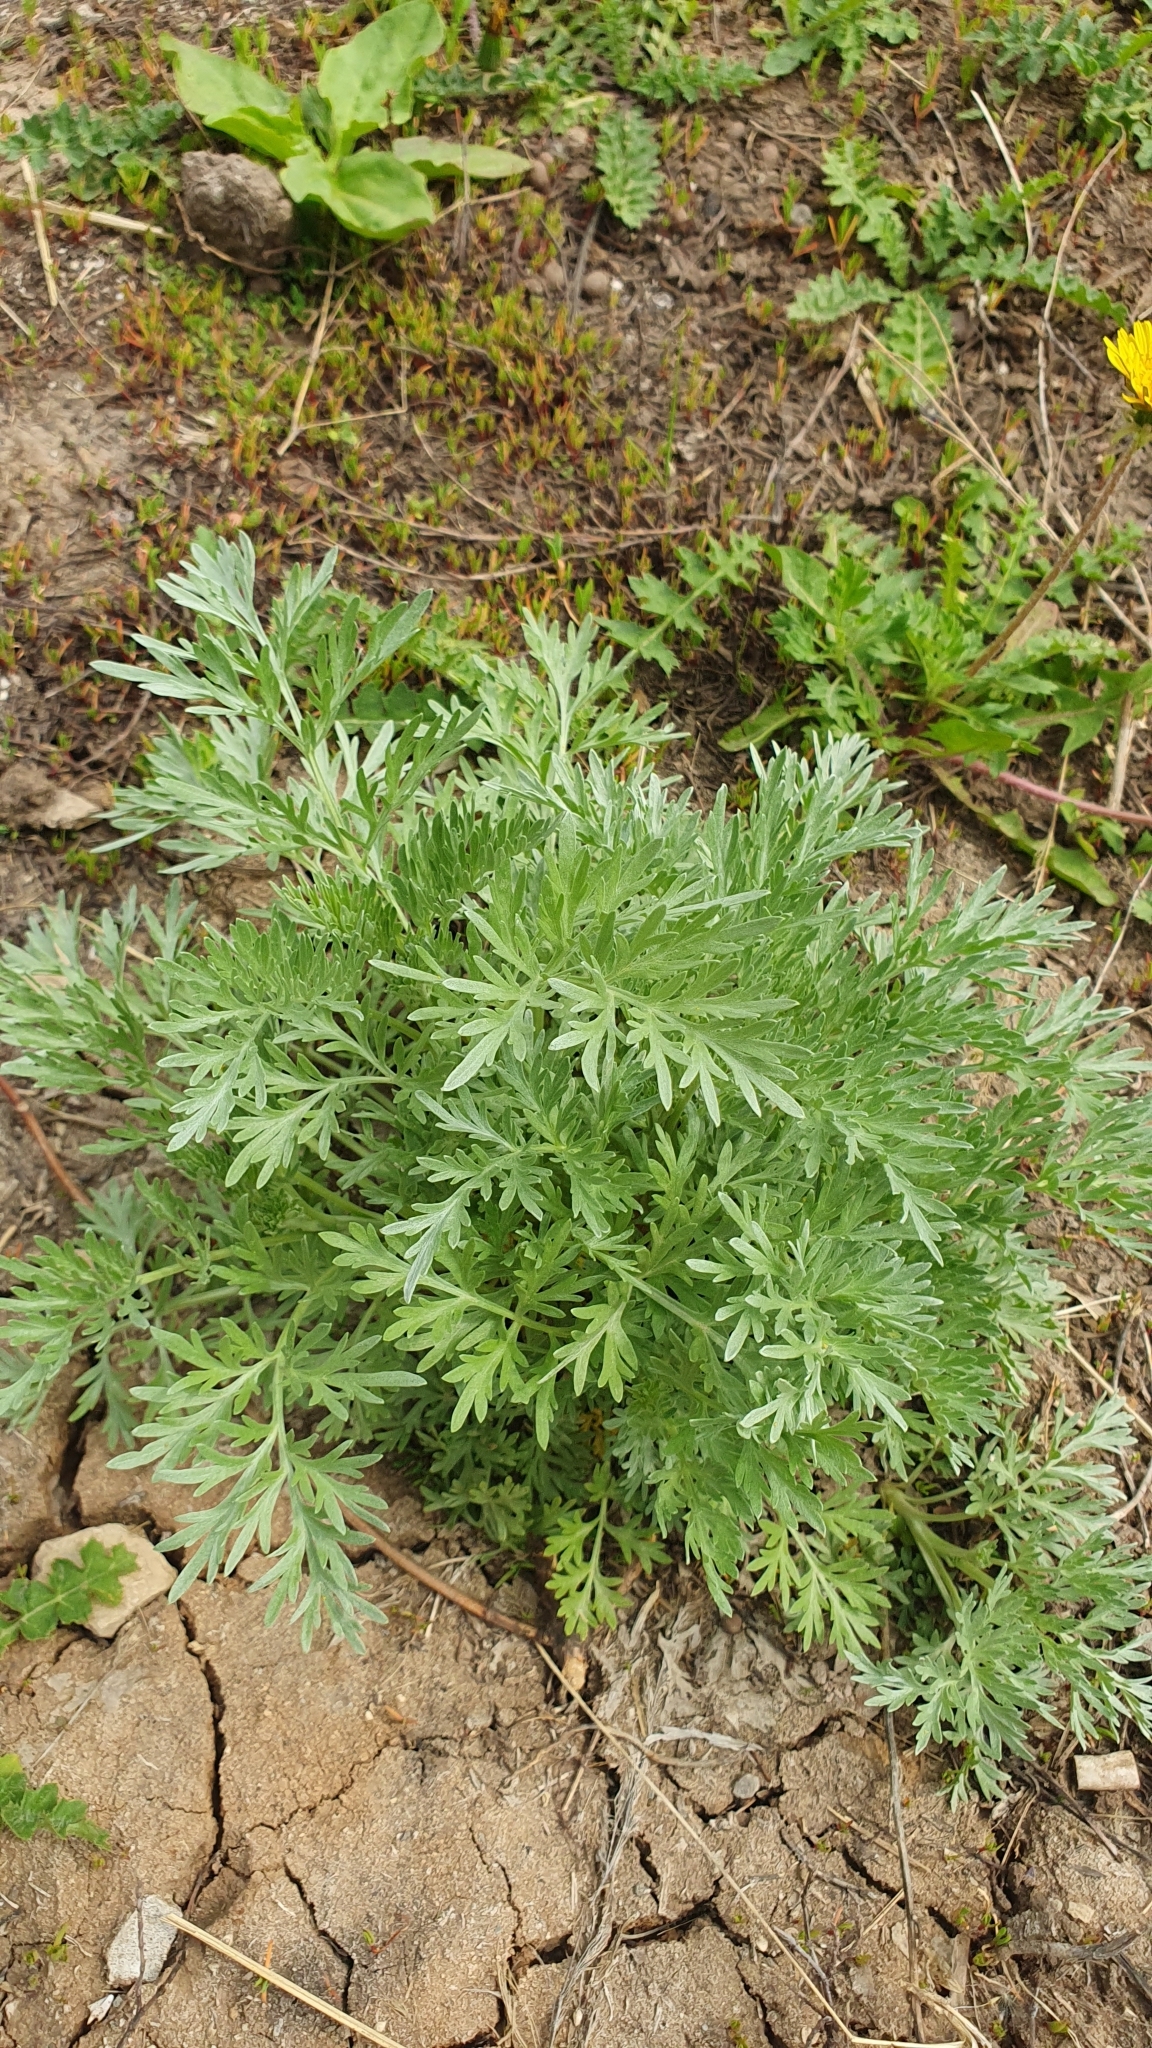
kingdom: Plantae
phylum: Tracheophyta
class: Magnoliopsida
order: Asterales
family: Asteraceae
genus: Artemisia
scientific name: Artemisia absinthium
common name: Wormwood
